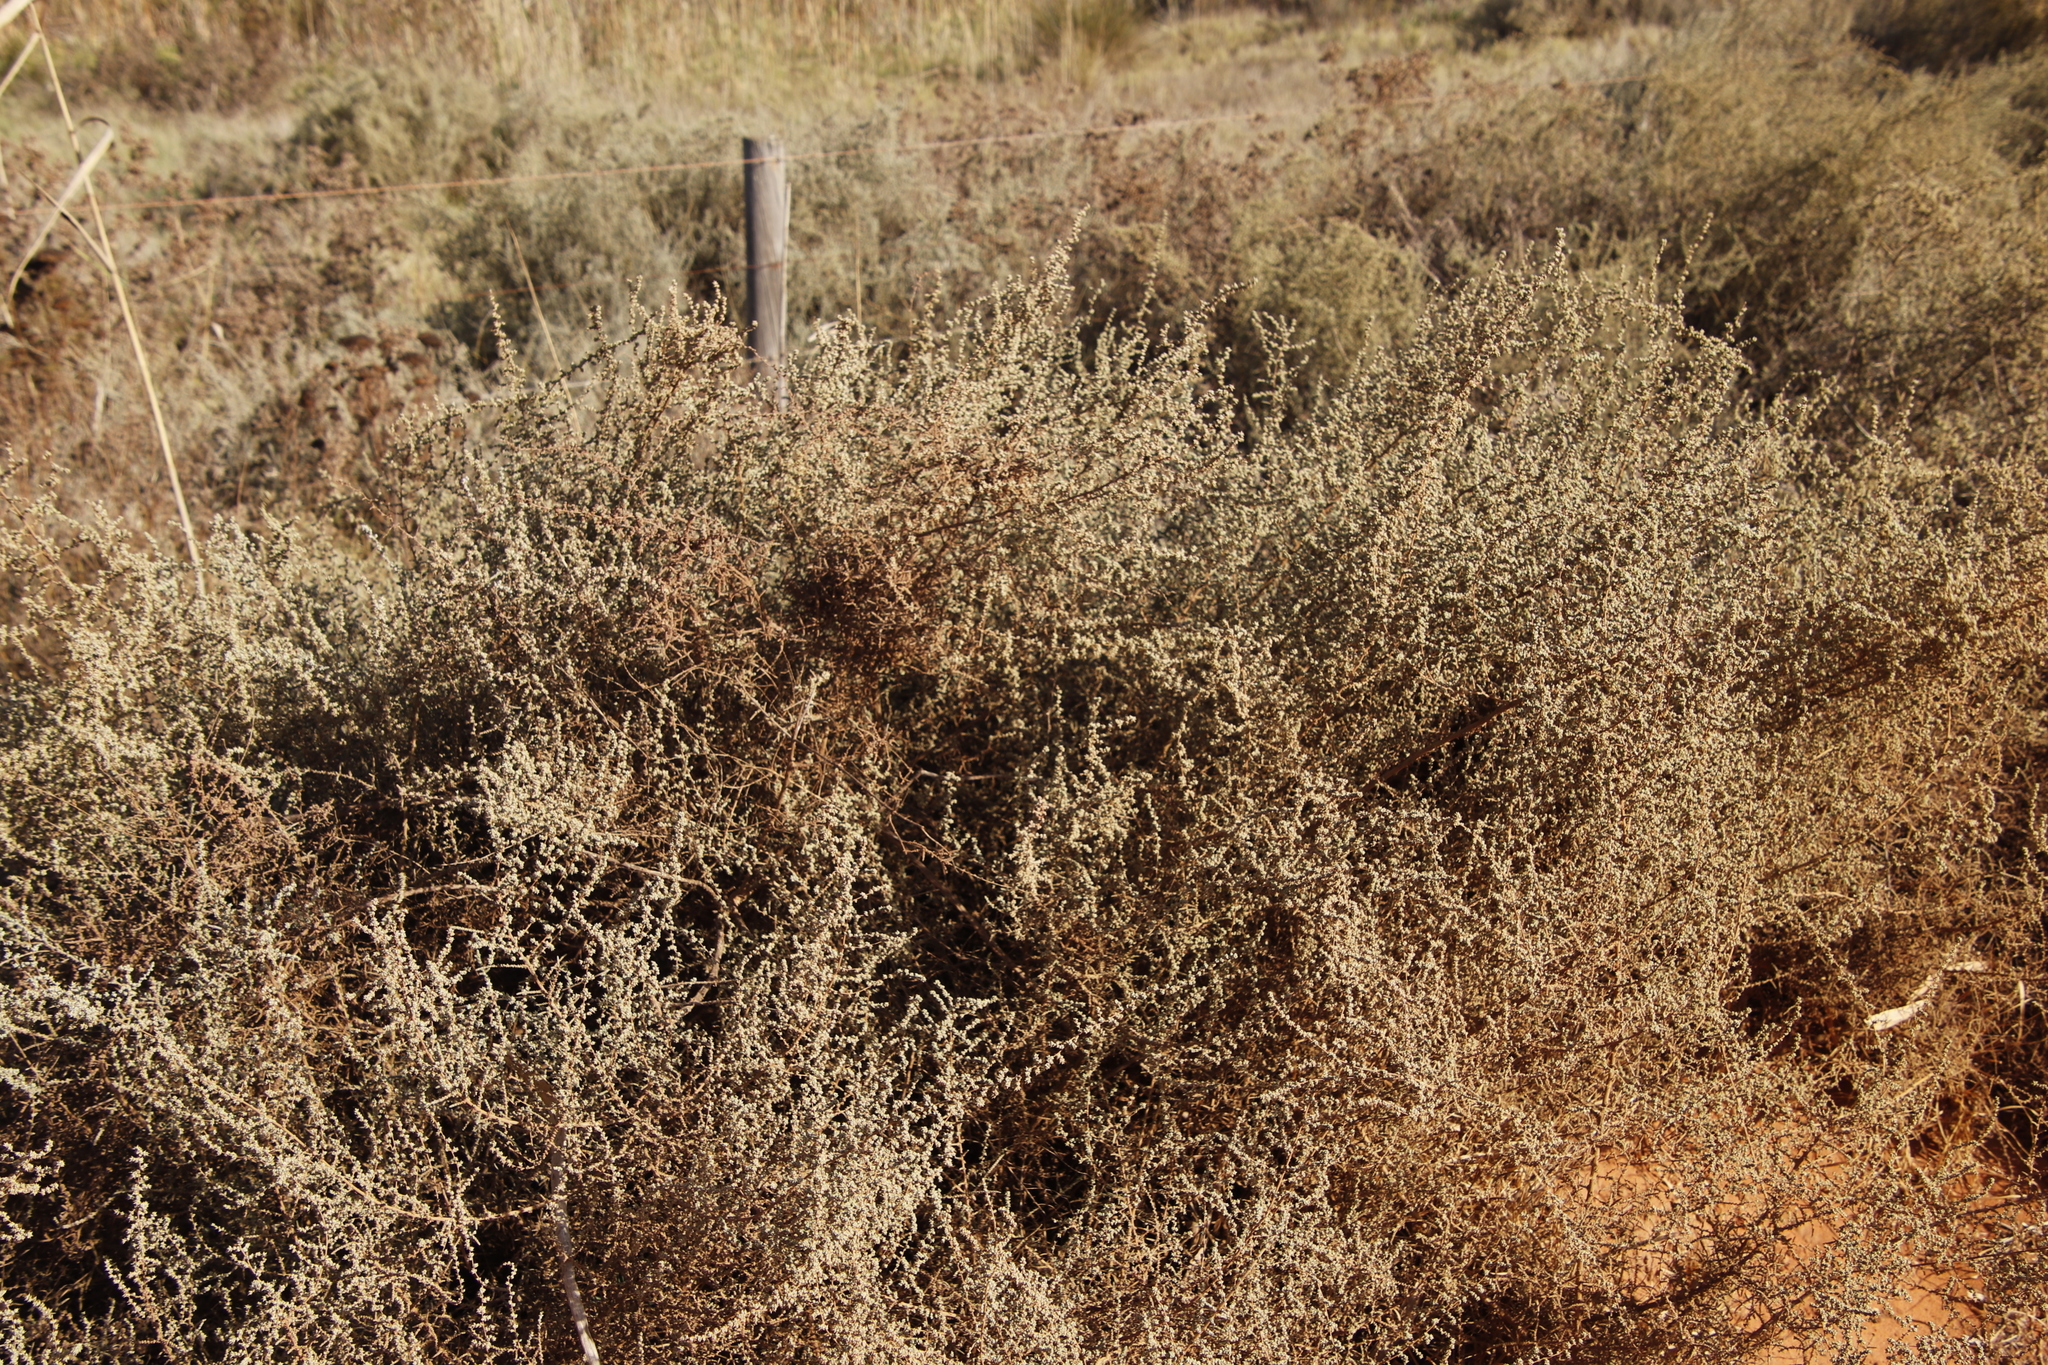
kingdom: Plantae
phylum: Tracheophyta
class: Magnoliopsida
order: Asterales
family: Asteraceae
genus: Seriphium
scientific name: Seriphium plumosum
